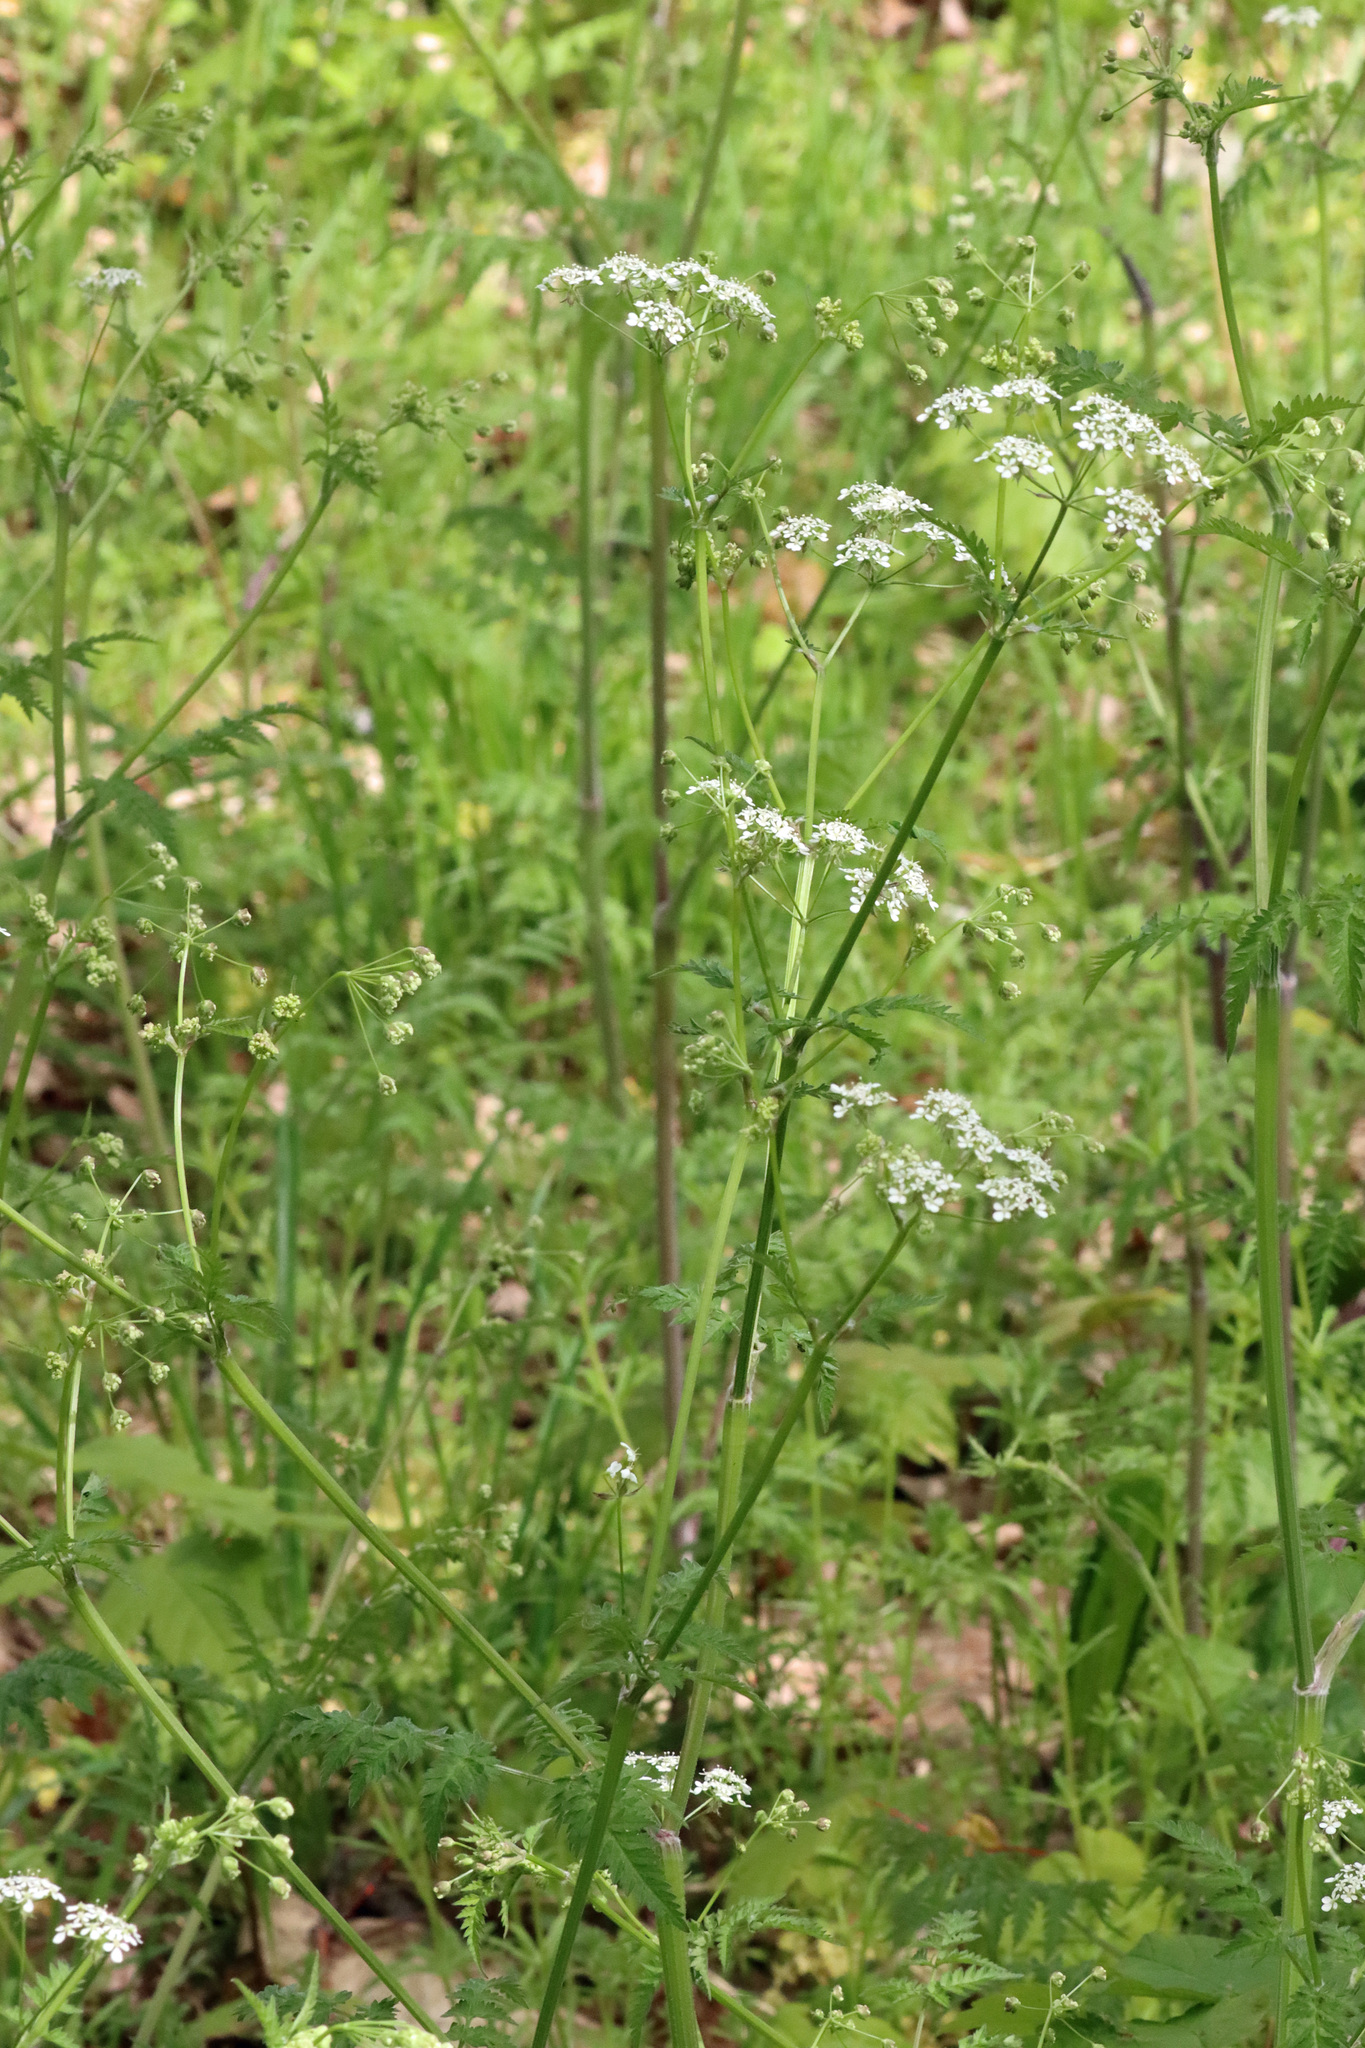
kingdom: Plantae
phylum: Tracheophyta
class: Magnoliopsida
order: Apiales
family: Apiaceae
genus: Anthriscus
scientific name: Anthriscus sylvestris
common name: Cow parsley
